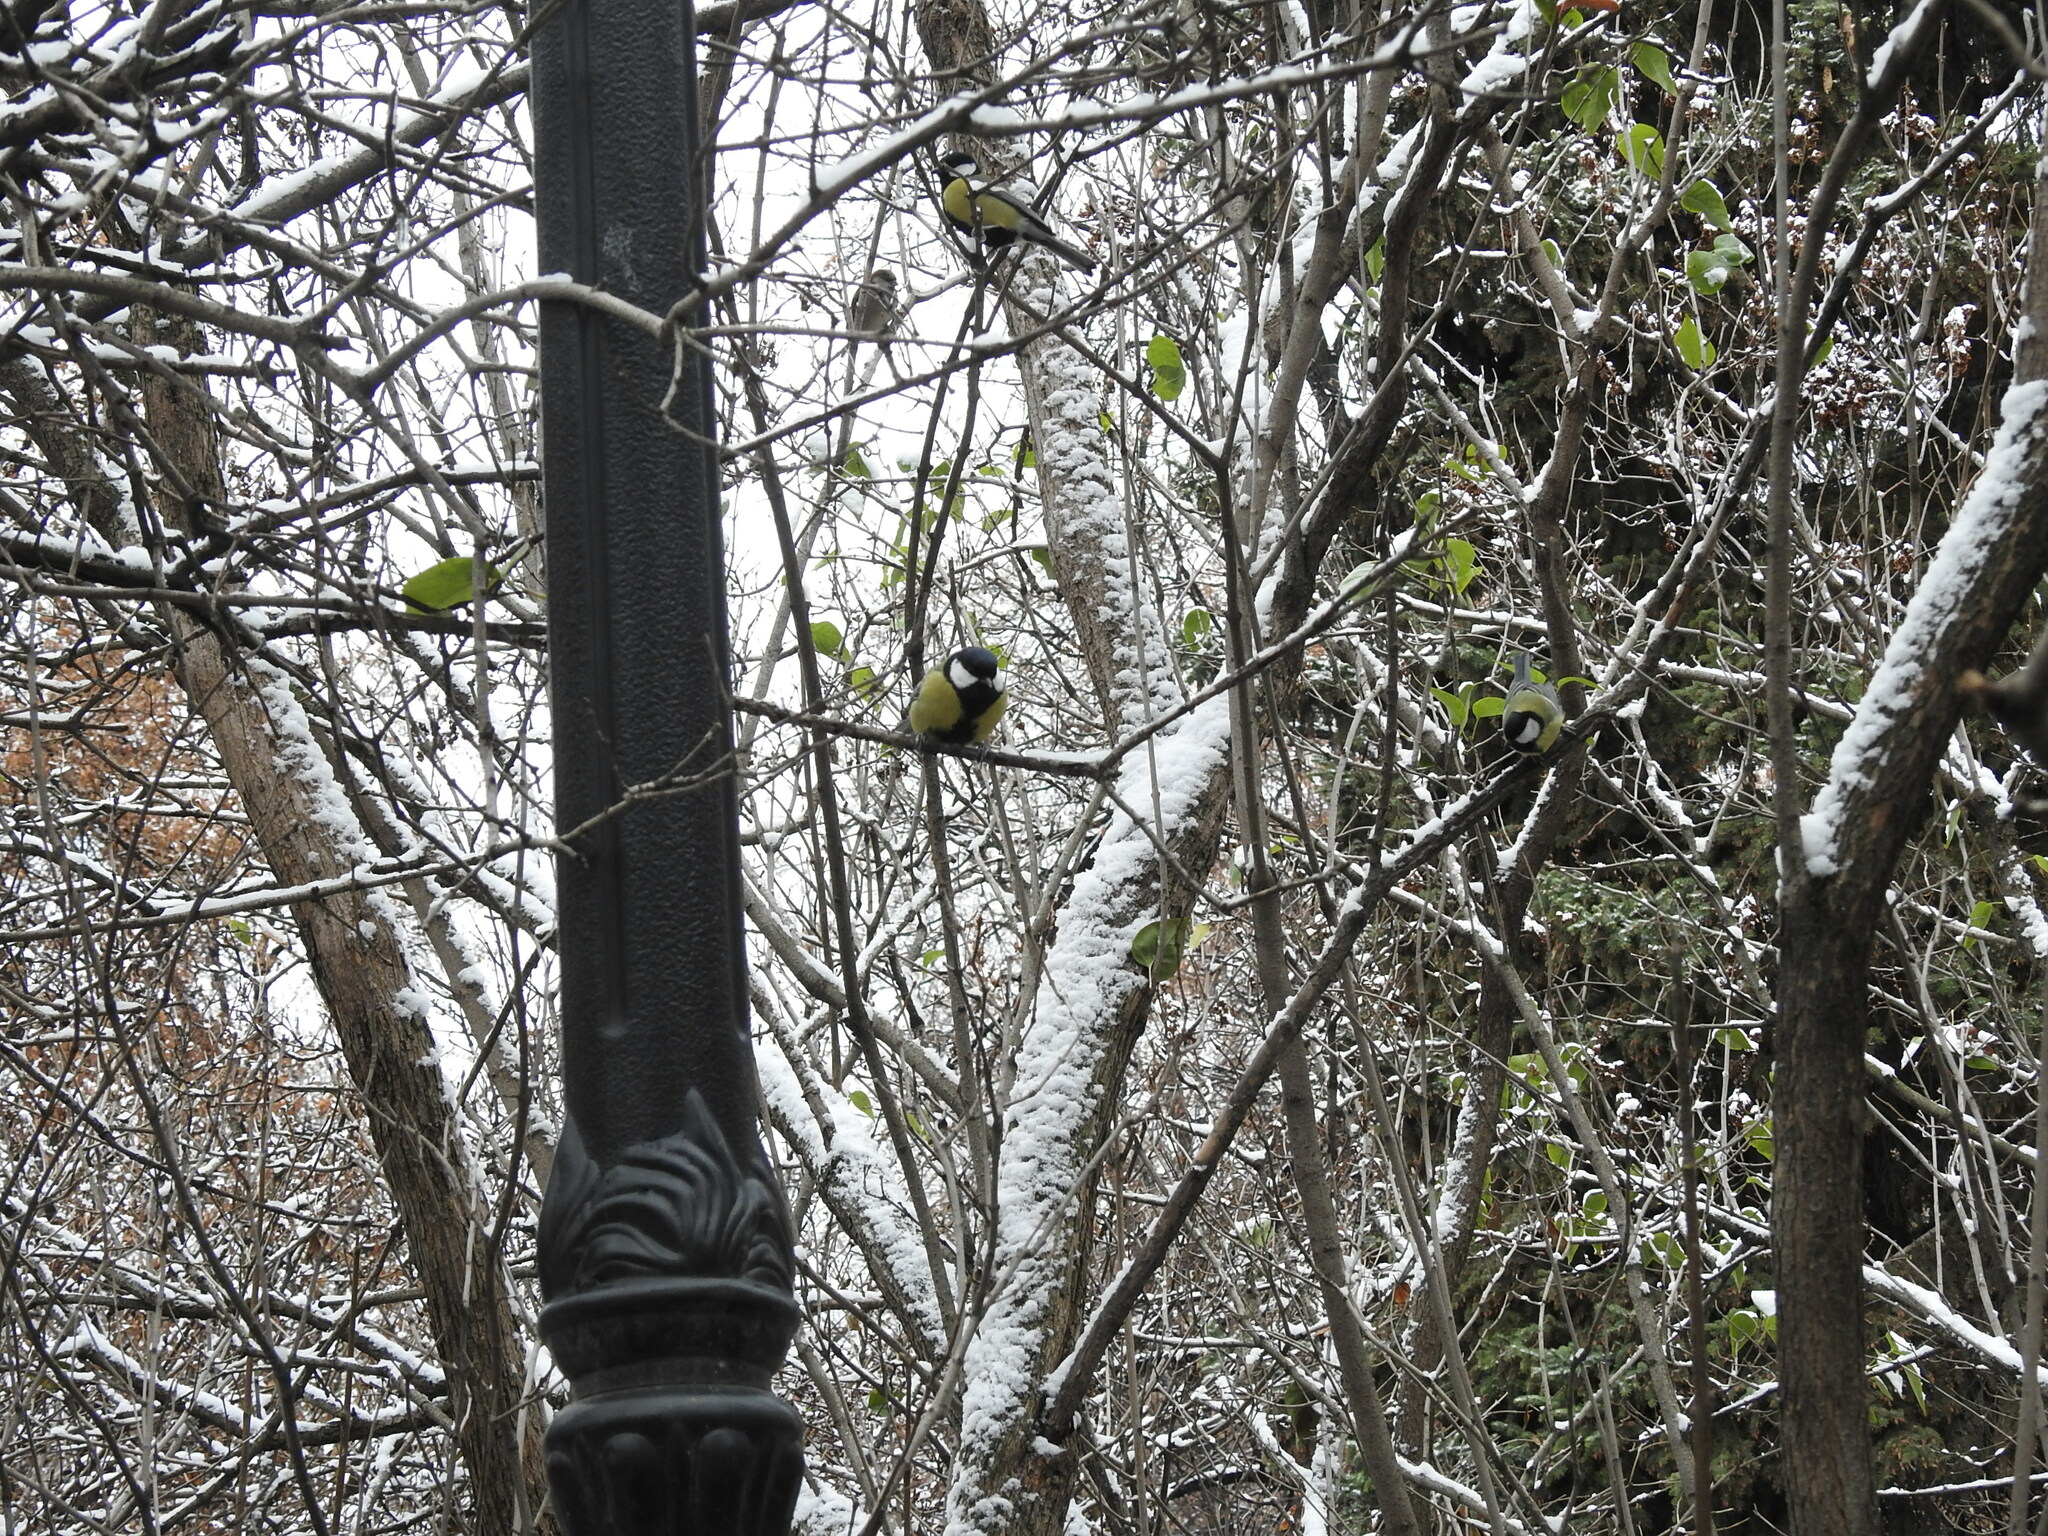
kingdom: Animalia
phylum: Chordata
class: Aves
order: Passeriformes
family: Paridae
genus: Parus
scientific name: Parus major
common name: Great tit
